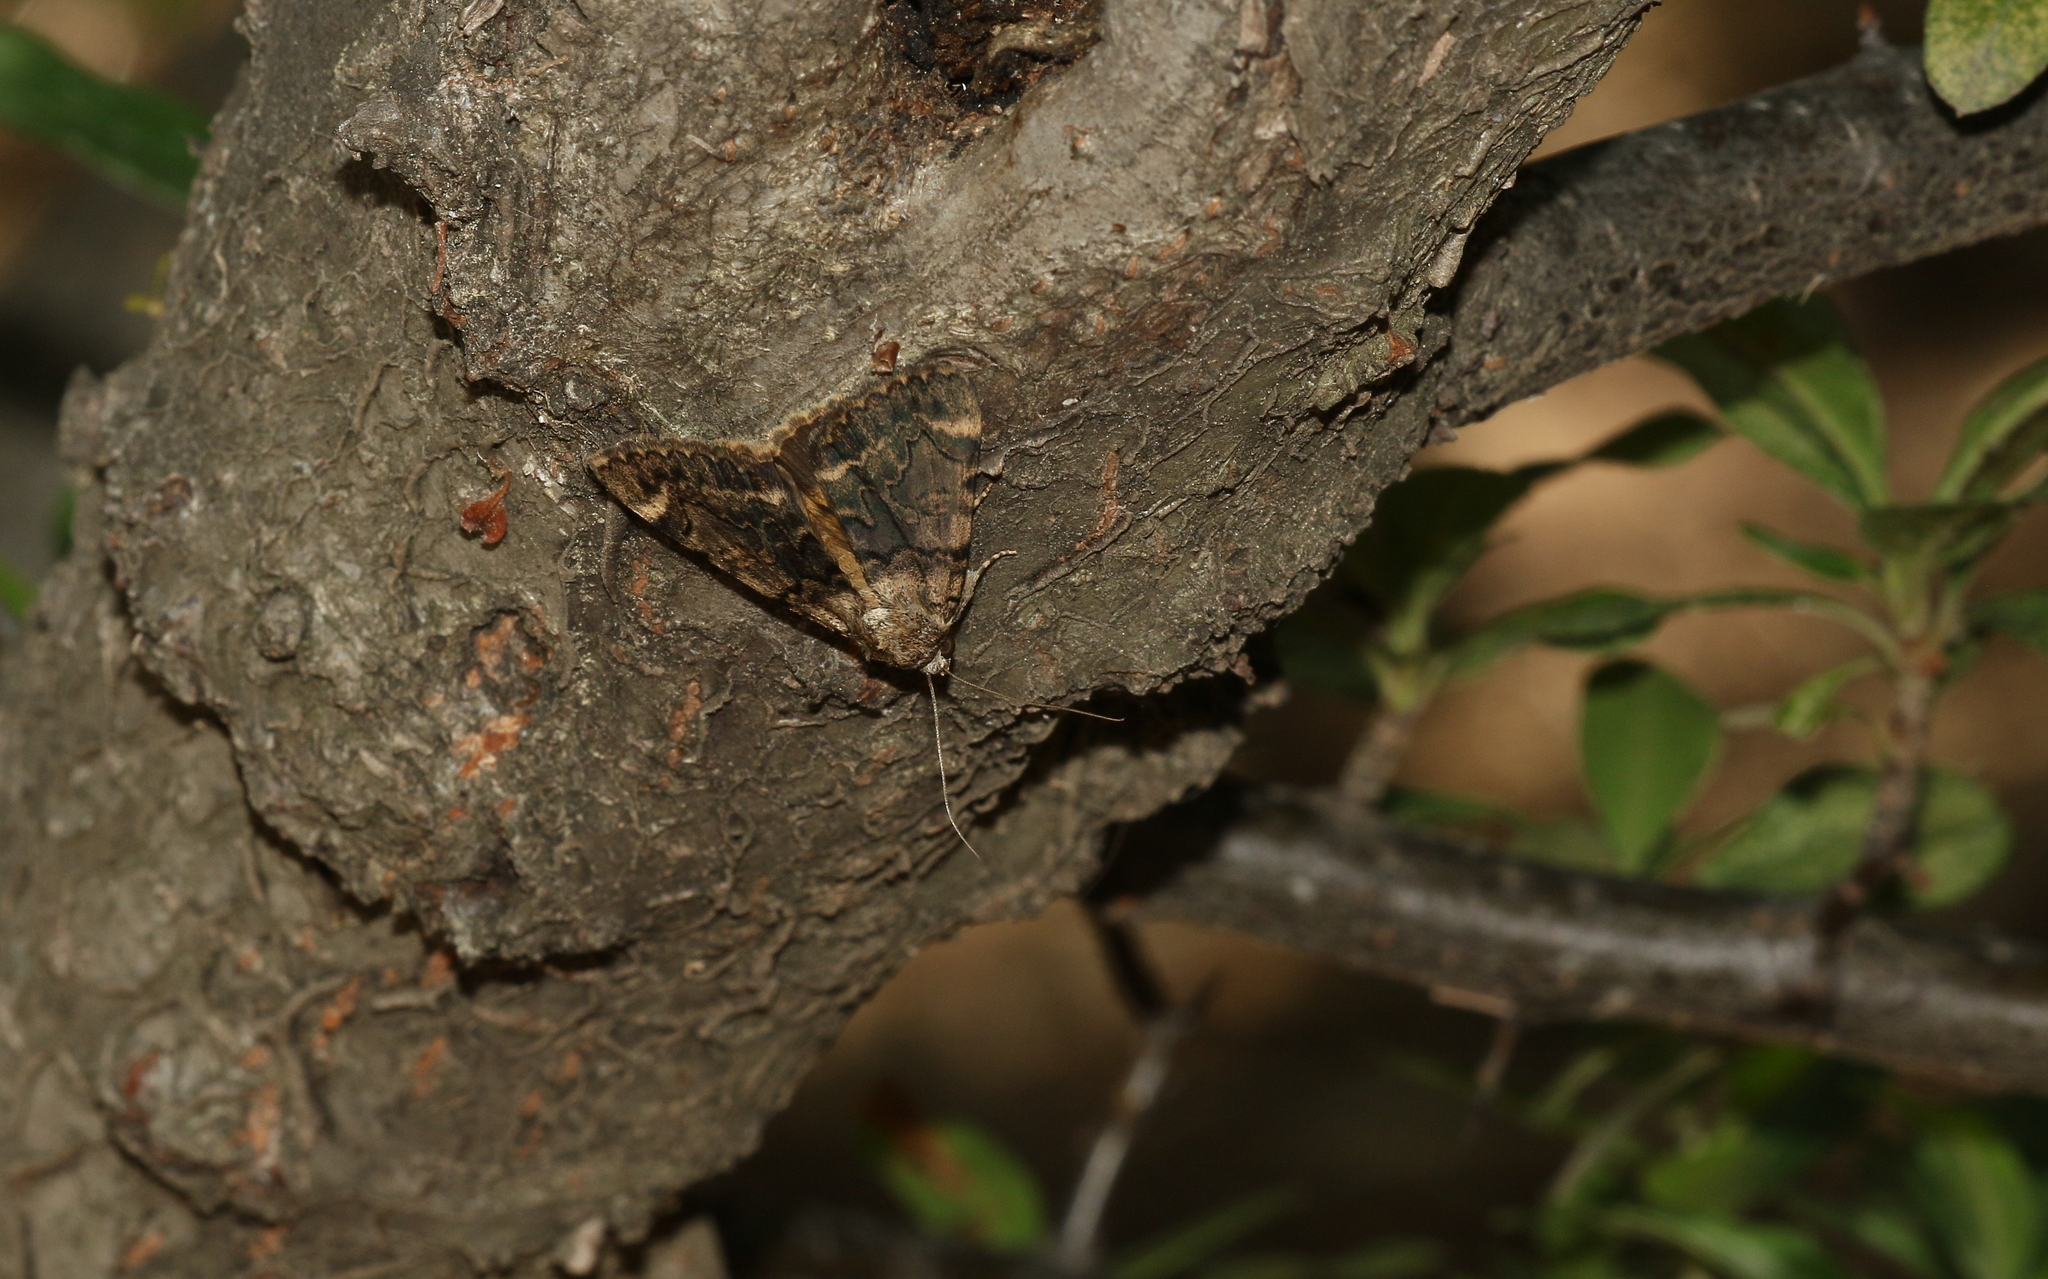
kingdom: Animalia
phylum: Arthropoda
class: Insecta
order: Lepidoptera
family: Erebidae
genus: Catocala
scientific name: Catocala nymphaea
